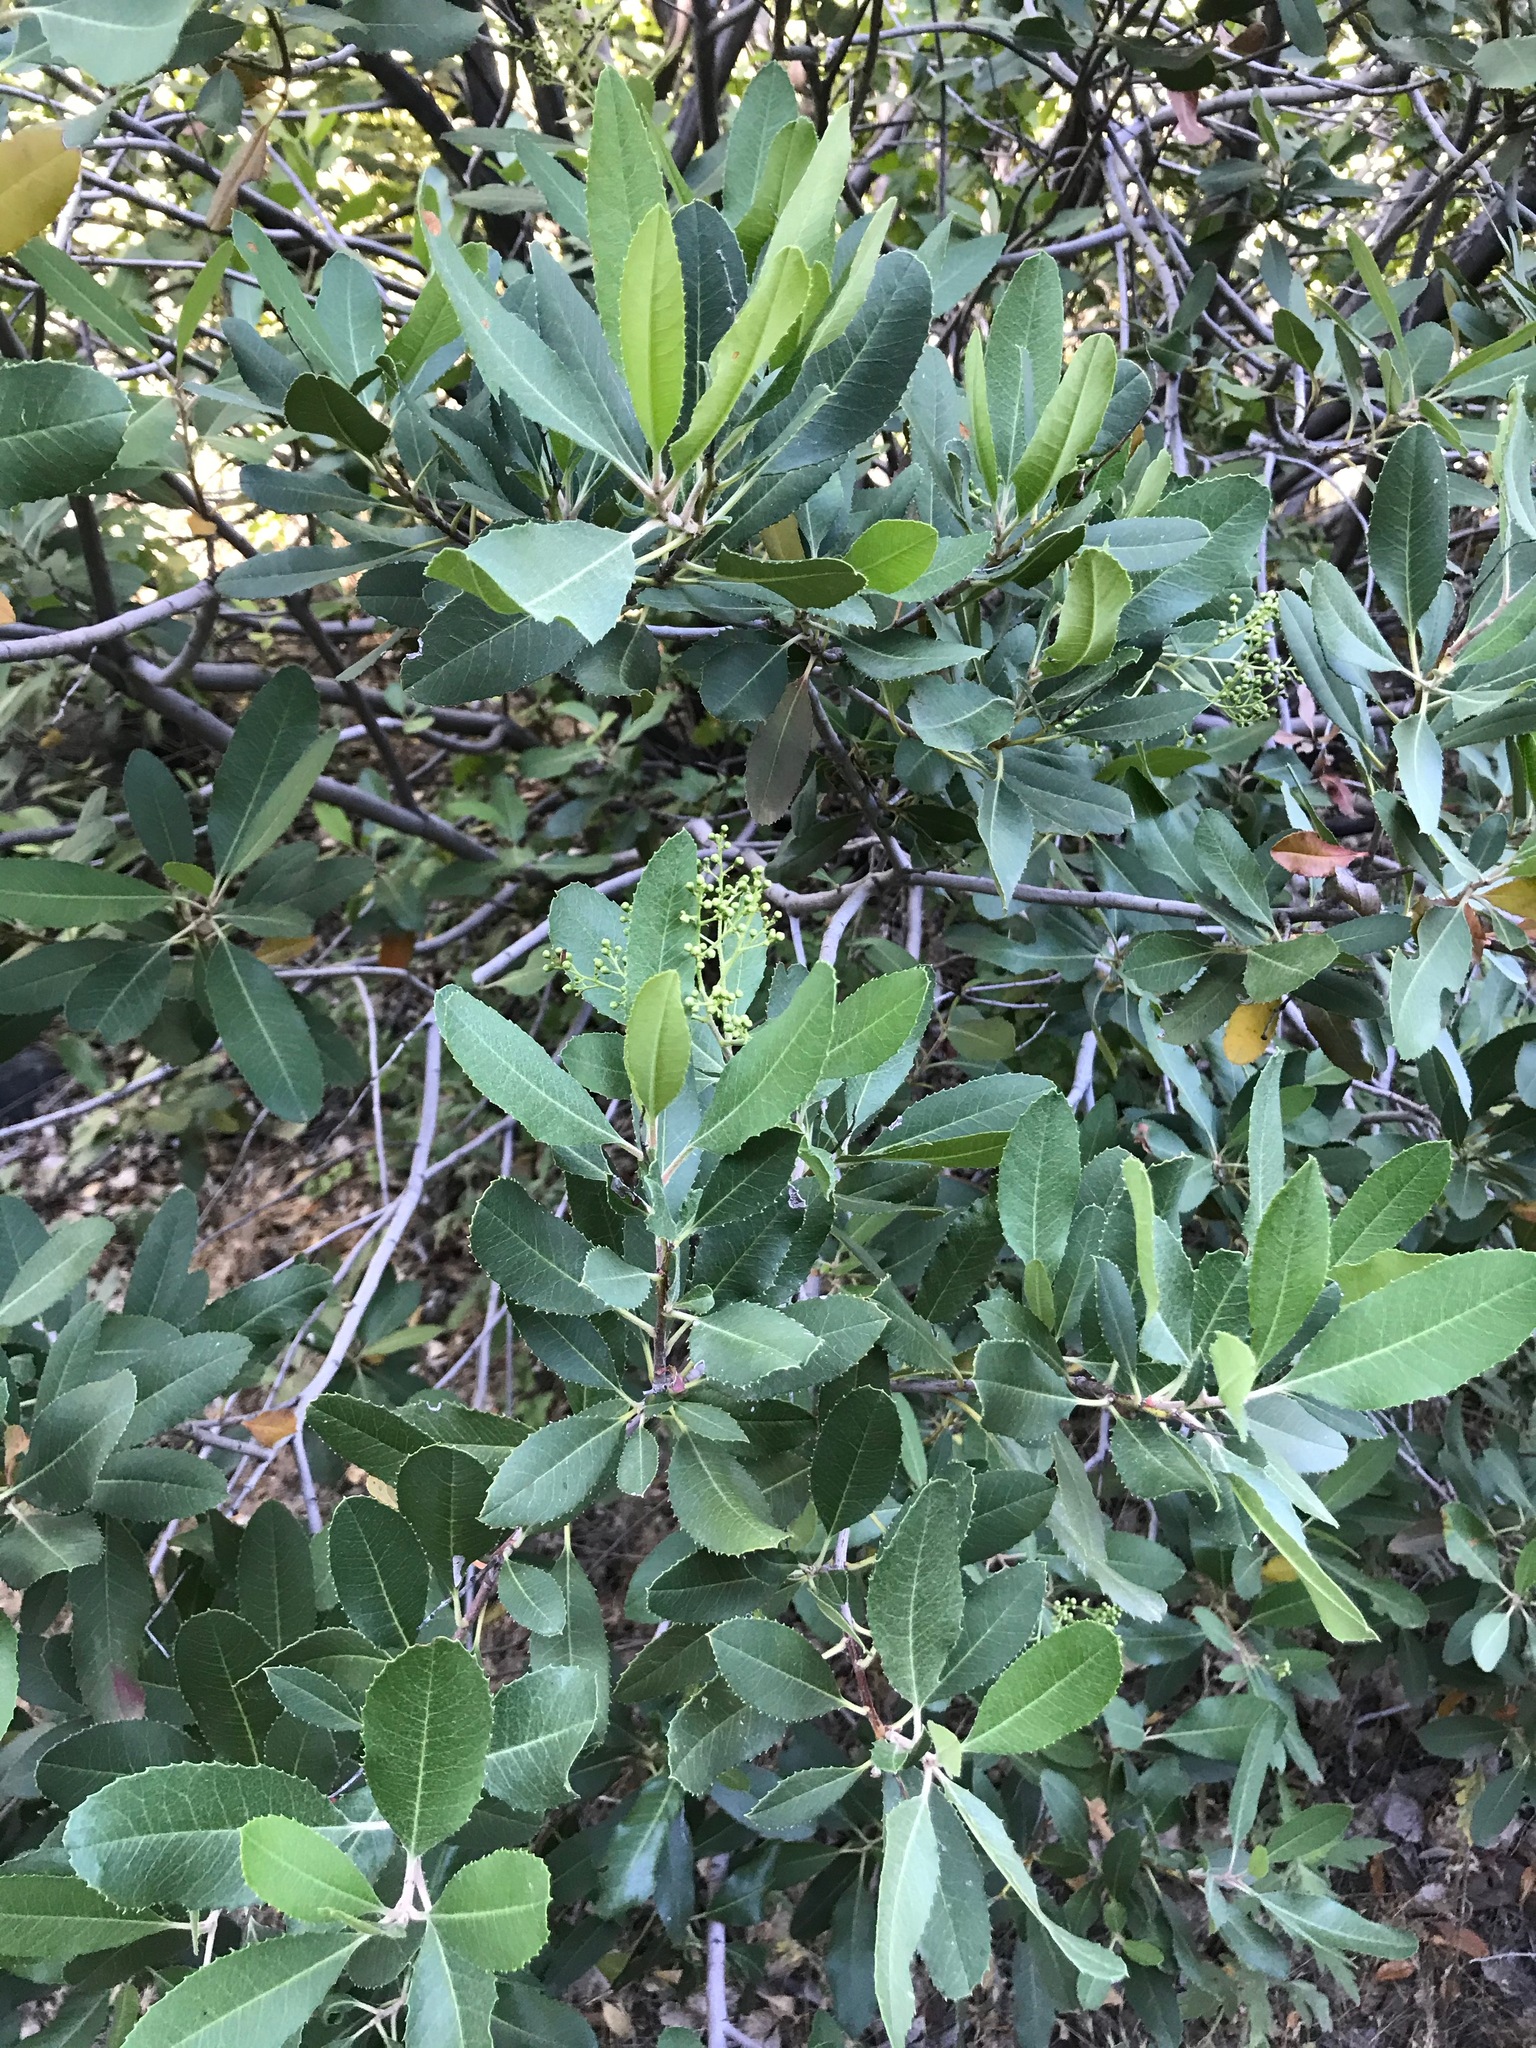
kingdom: Plantae
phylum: Tracheophyta
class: Magnoliopsida
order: Rosales
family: Rosaceae
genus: Heteromeles
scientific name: Heteromeles arbutifolia
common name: California-holly
